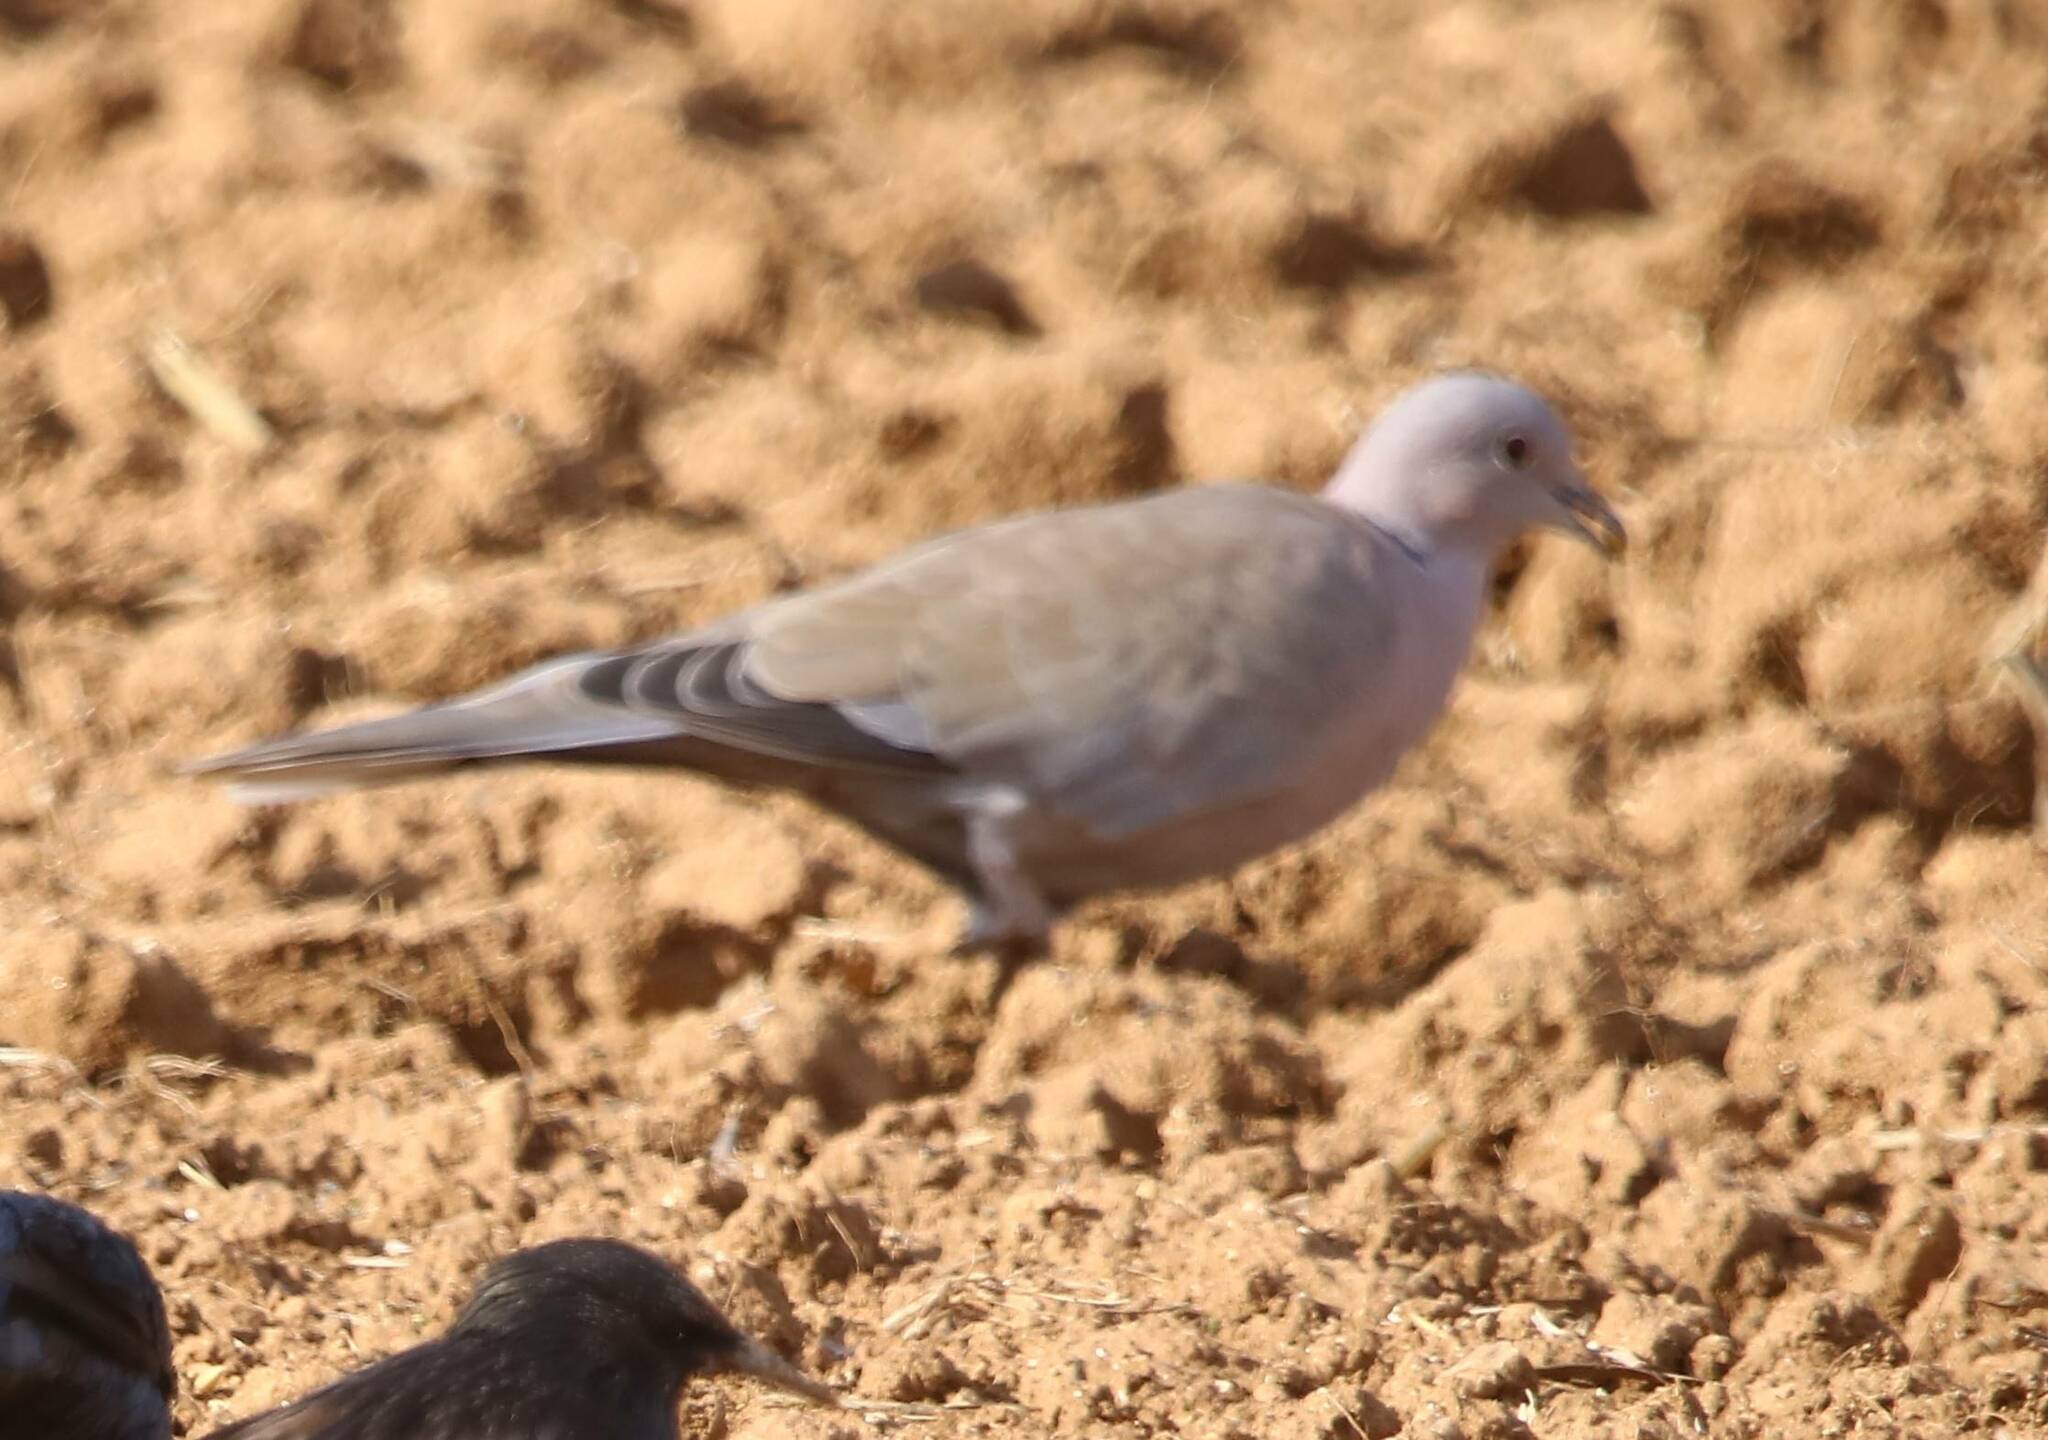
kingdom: Animalia
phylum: Chordata
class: Aves
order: Columbiformes
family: Columbidae
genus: Streptopelia
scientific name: Streptopelia decaocto
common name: Eurasian collared dove
